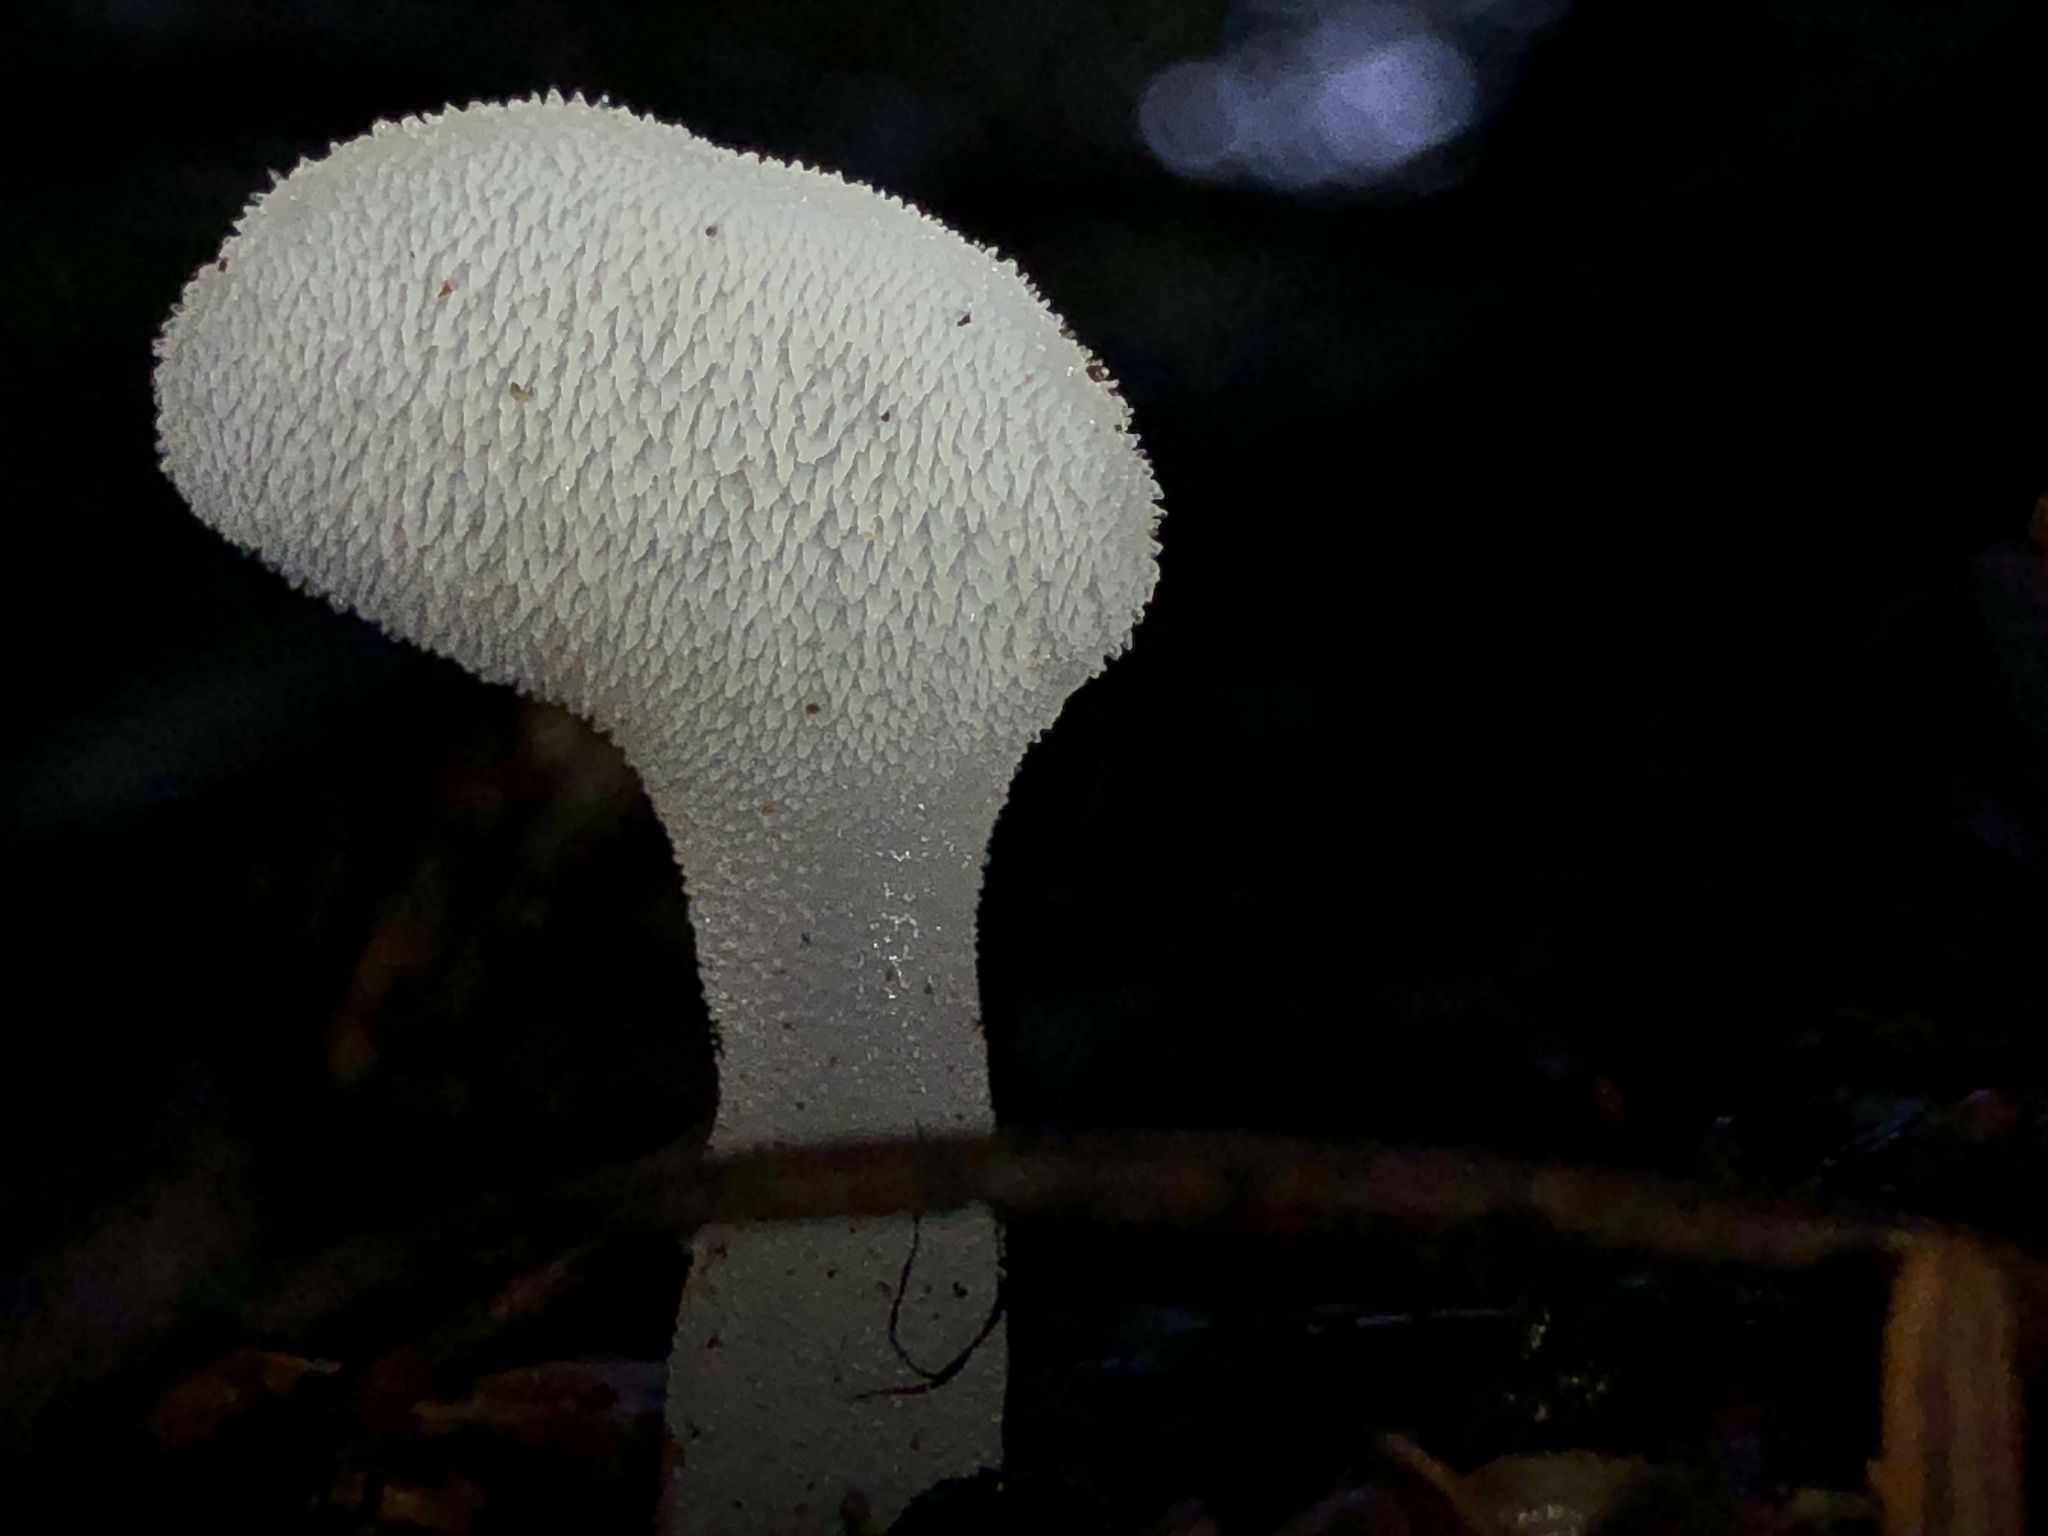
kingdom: Fungi
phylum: Basidiomycota
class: Agaricomycetes
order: Auriculariales
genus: Pseudohydnum
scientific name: Pseudohydnum gelatinosum
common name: Jelly tongue
